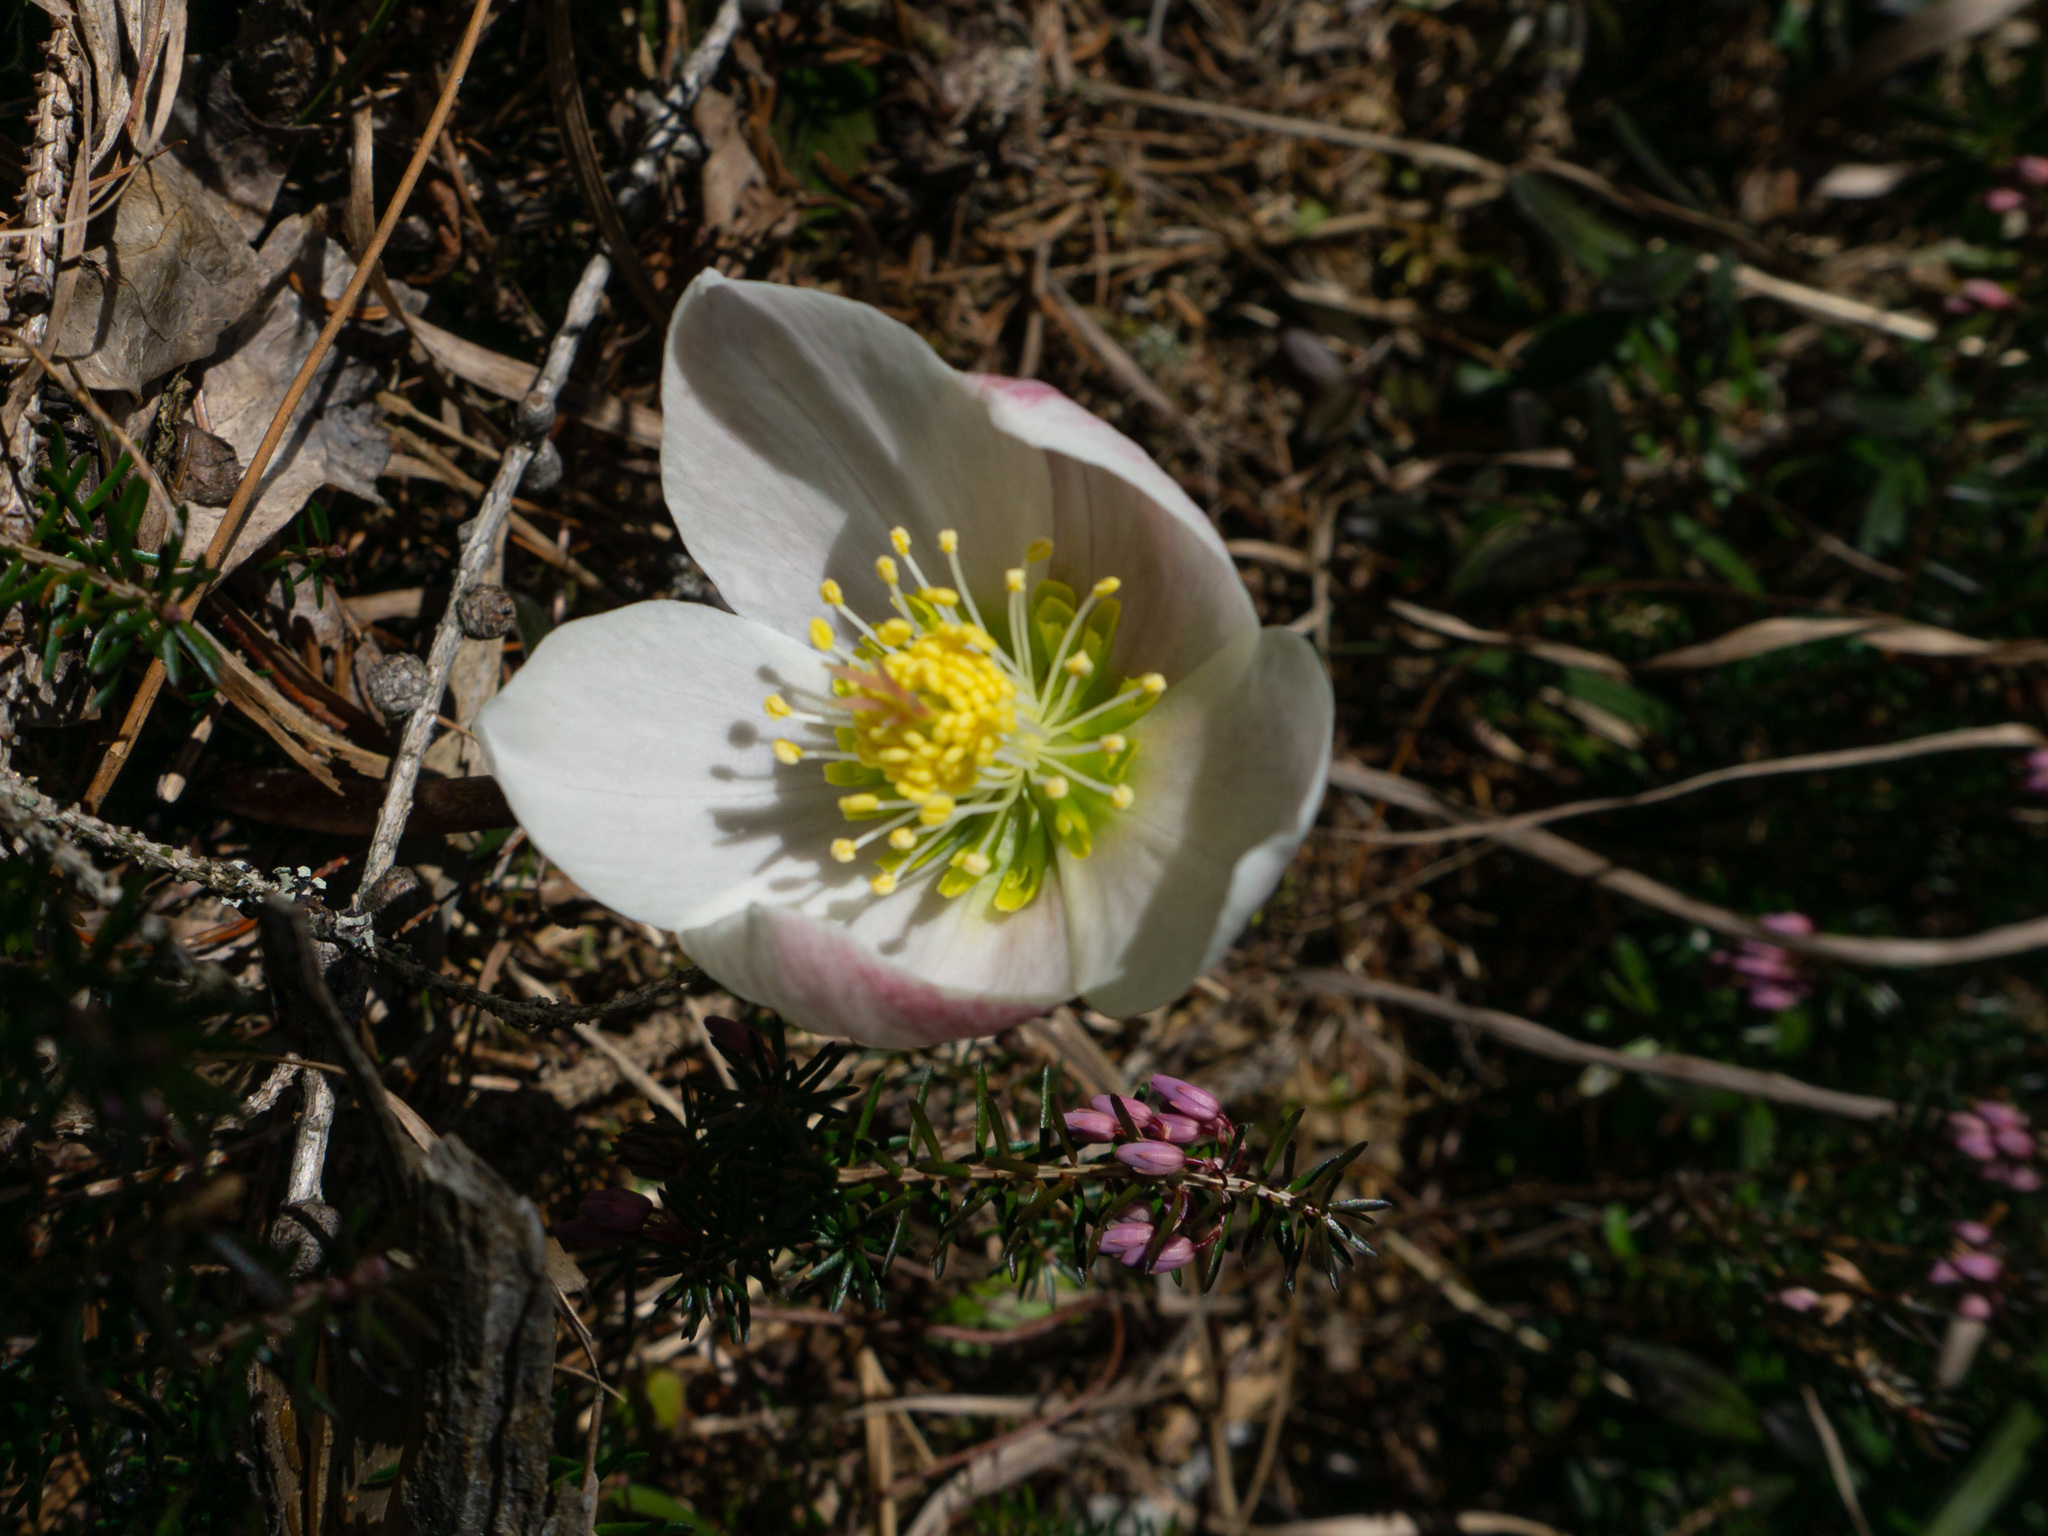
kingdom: Plantae
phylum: Tracheophyta
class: Magnoliopsida
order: Ranunculales
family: Ranunculaceae
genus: Helleborus
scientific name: Helleborus niger
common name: Black hellebore
